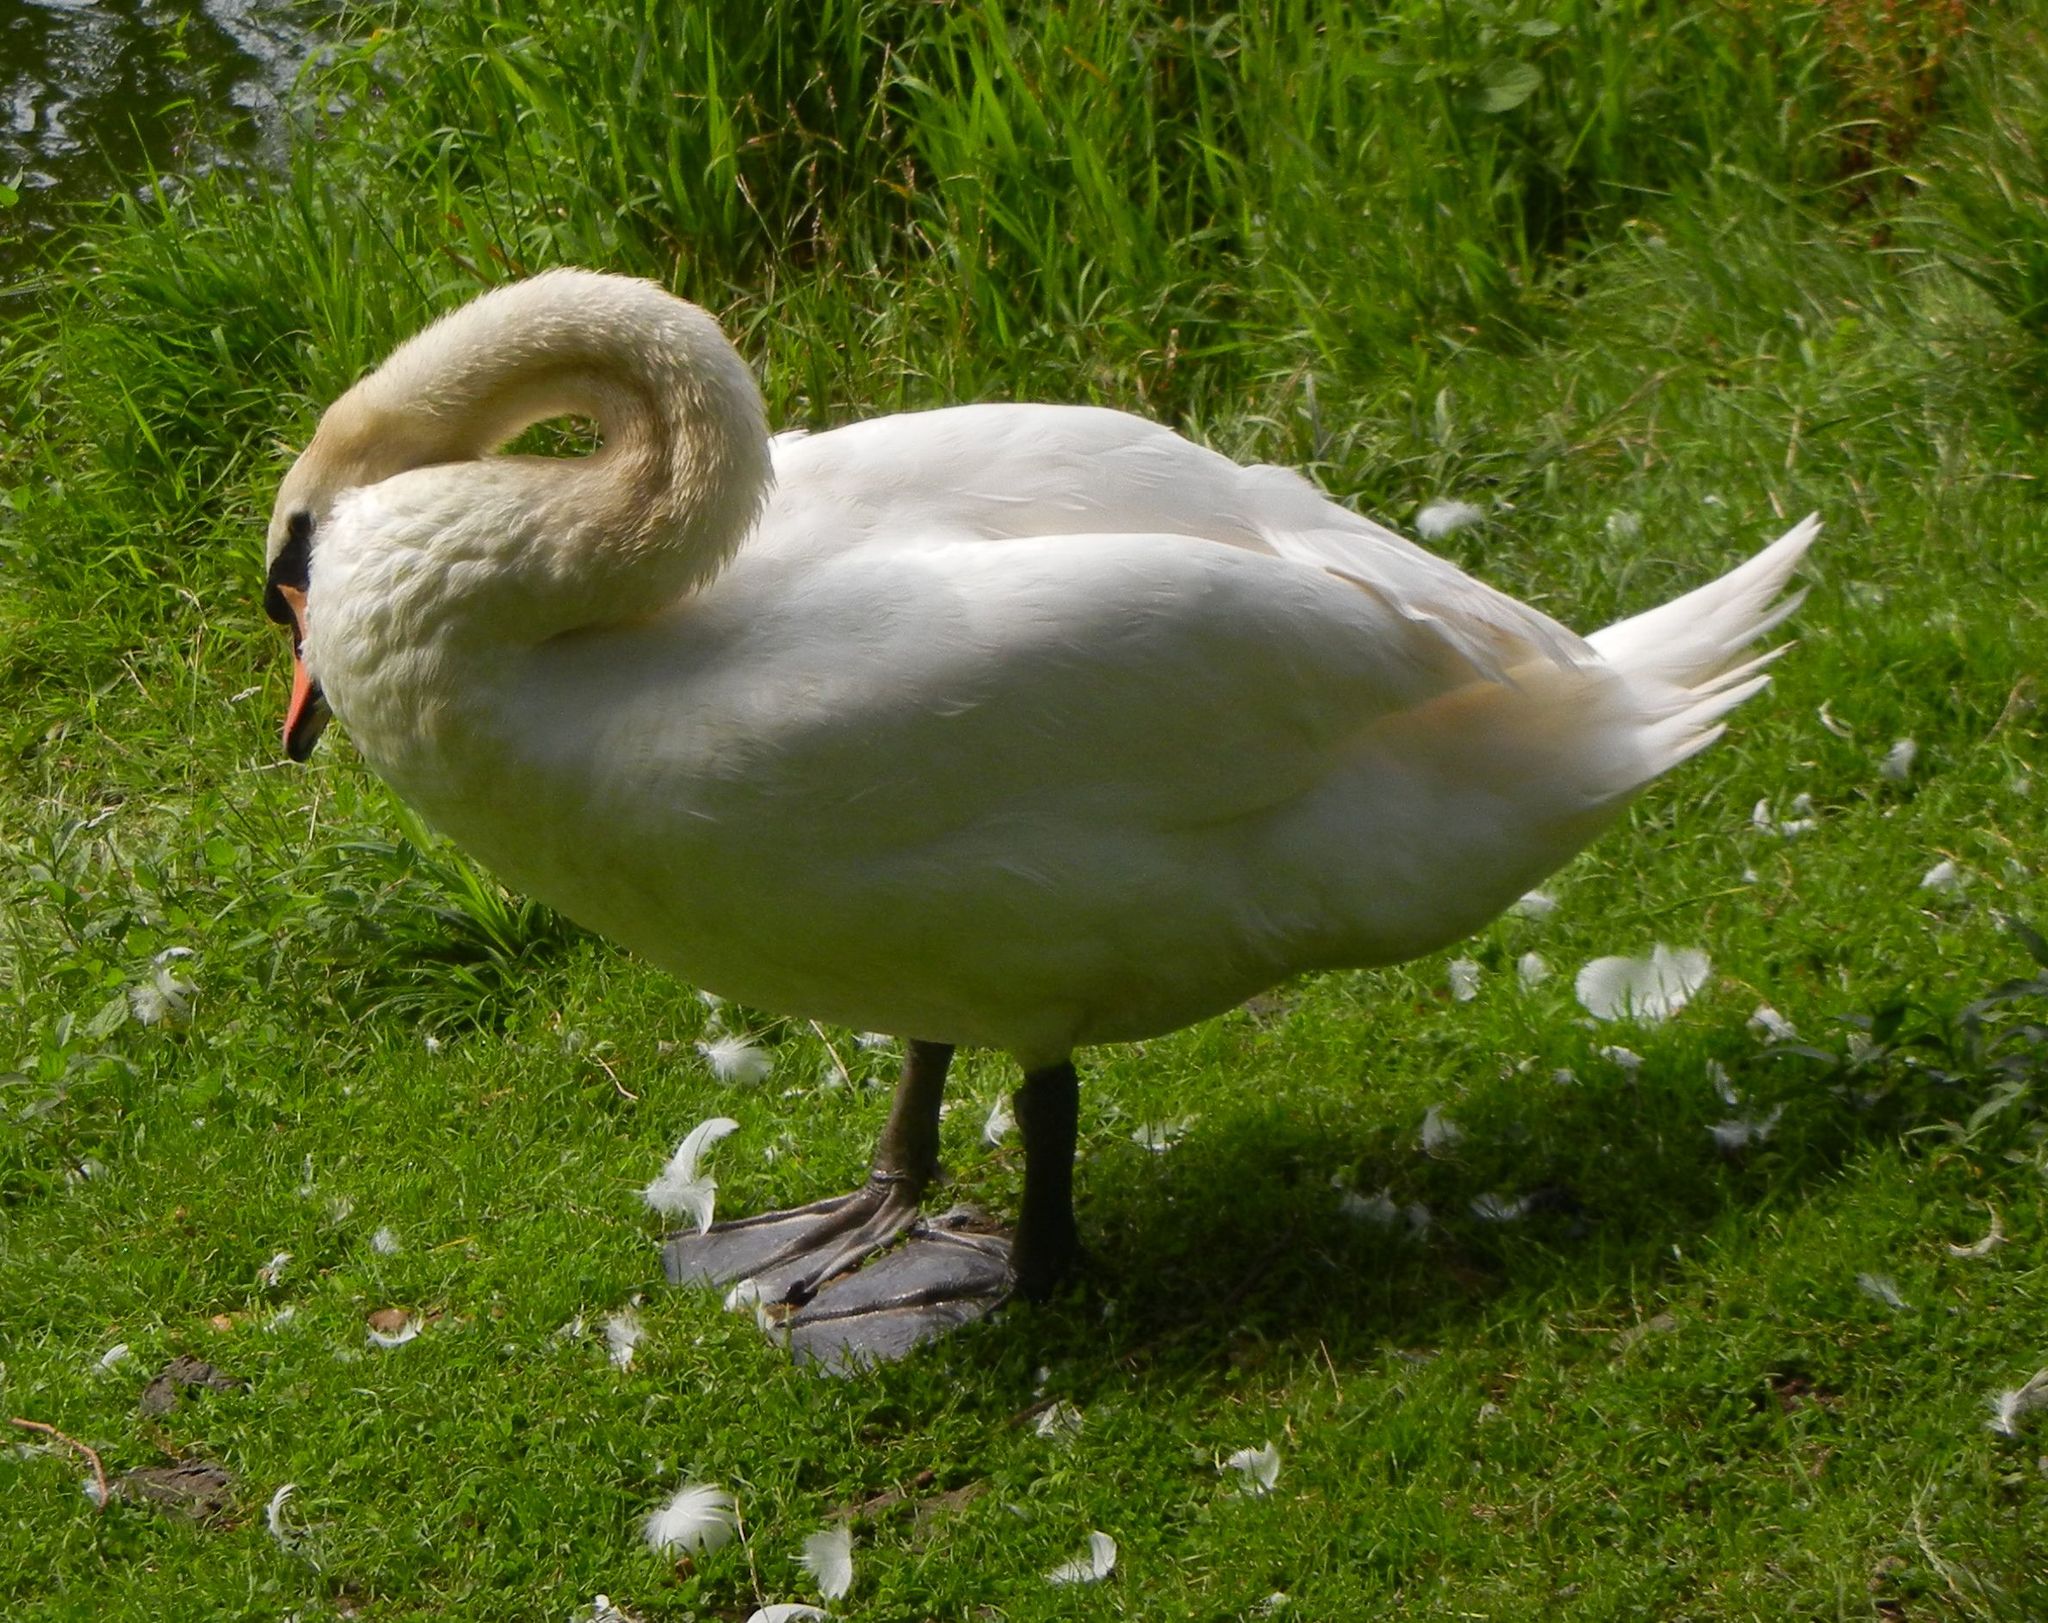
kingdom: Animalia
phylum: Chordata
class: Aves
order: Anseriformes
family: Anatidae
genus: Cygnus
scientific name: Cygnus olor
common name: Mute swan
